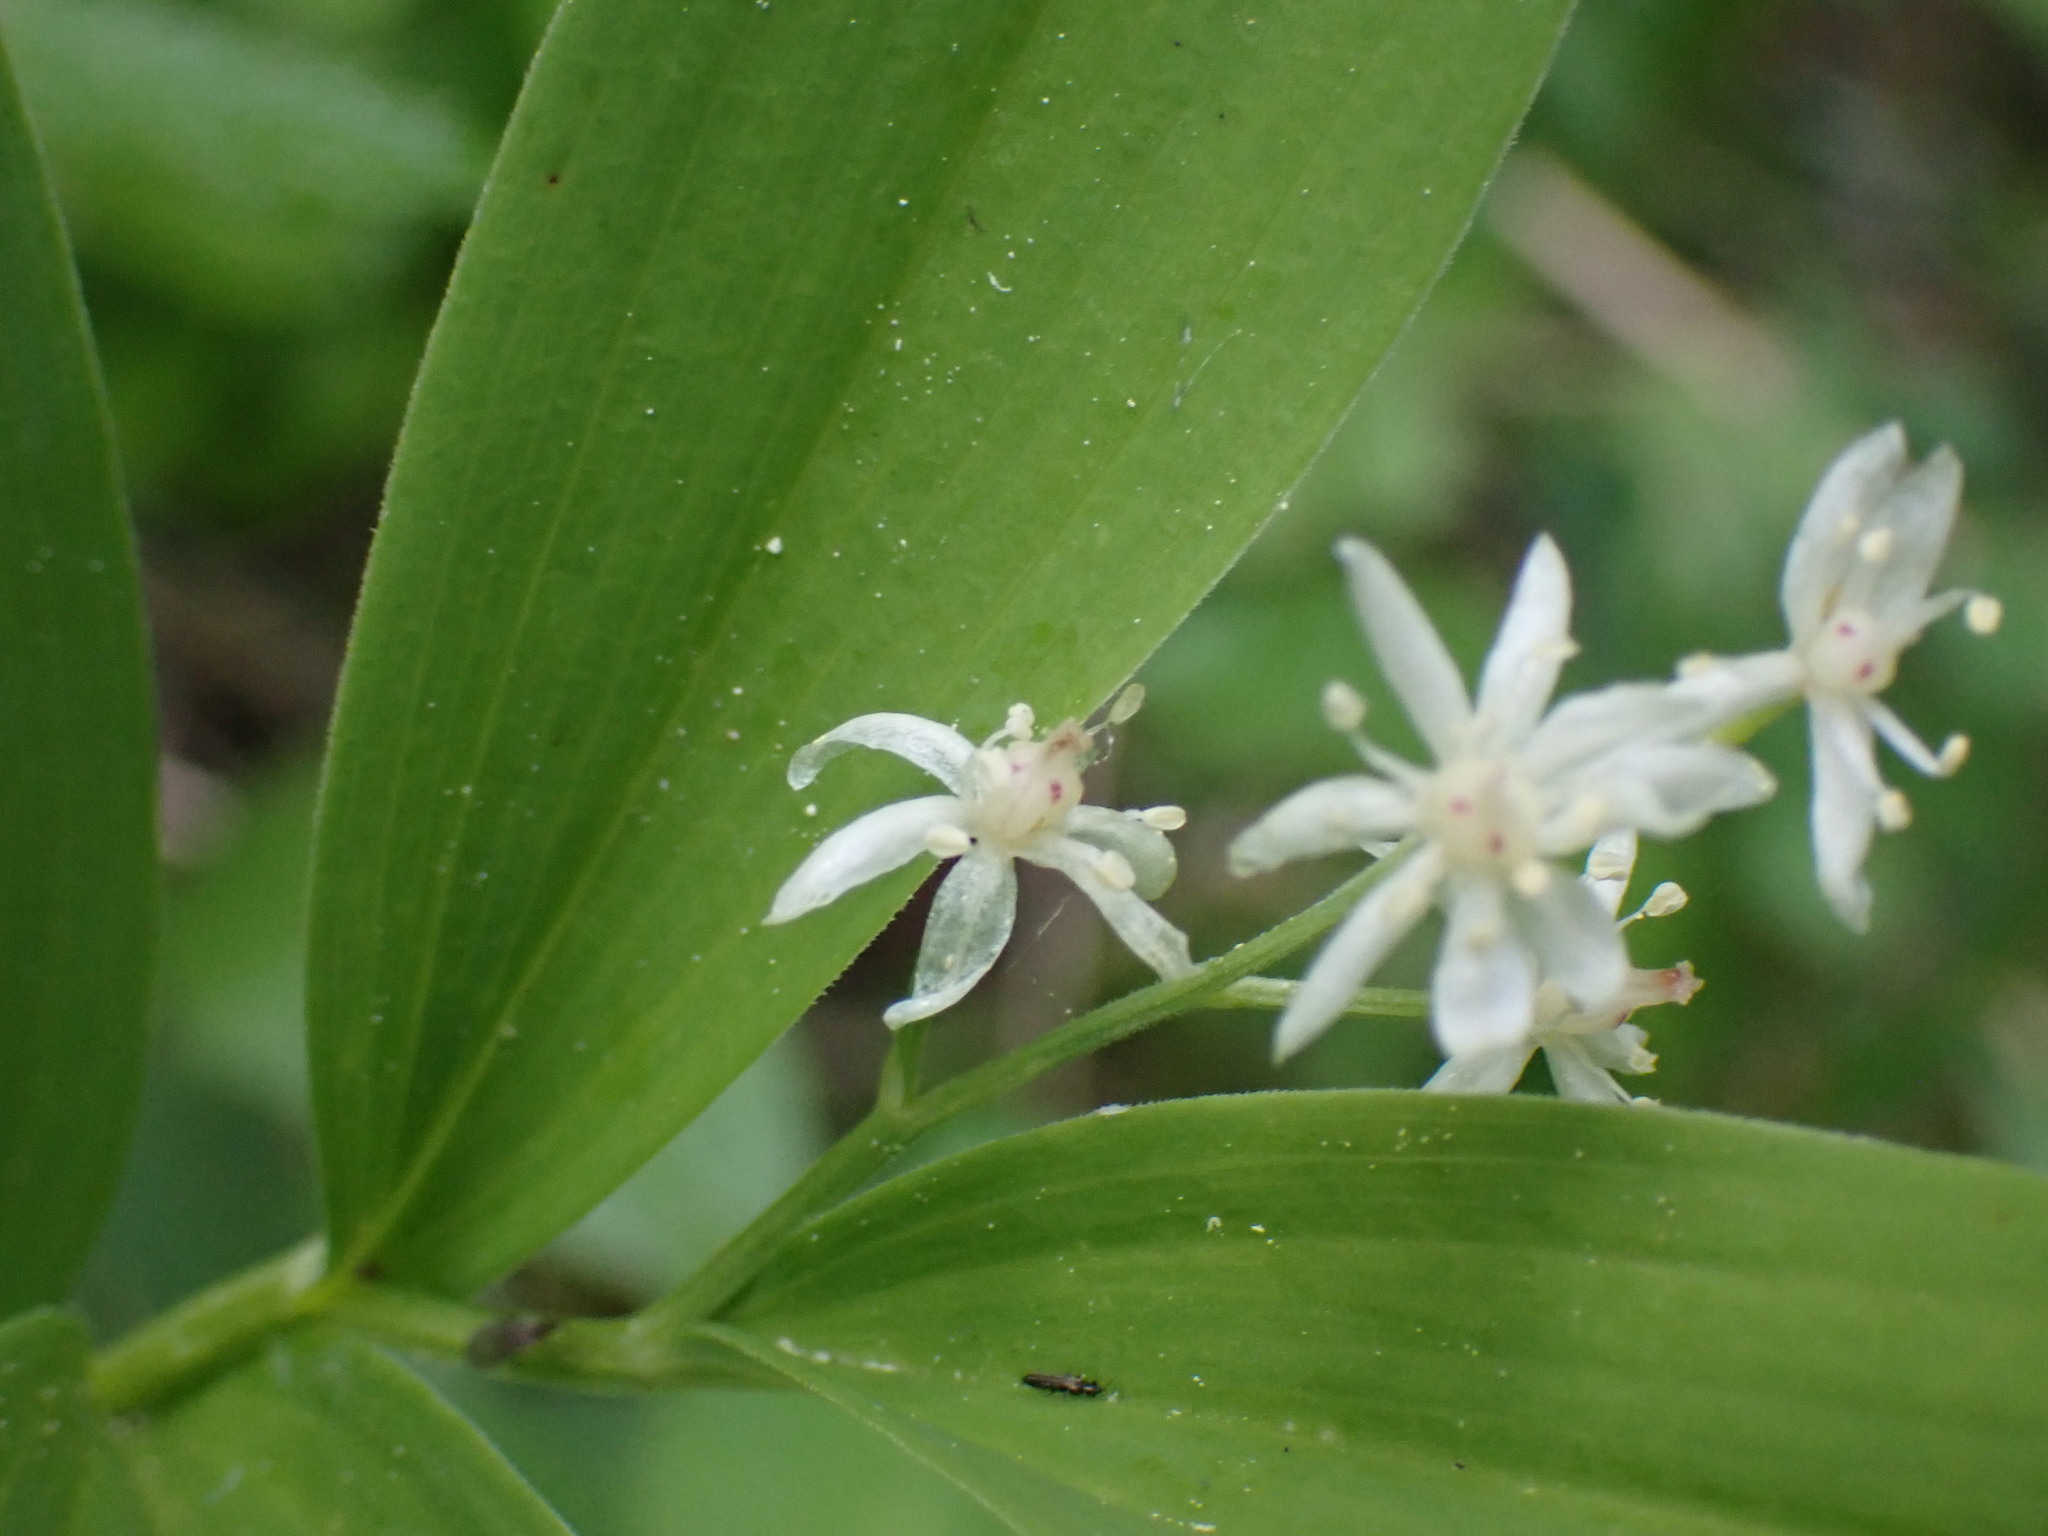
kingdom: Plantae
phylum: Tracheophyta
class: Liliopsida
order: Asparagales
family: Asparagaceae
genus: Maianthemum
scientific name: Maianthemum stellatum
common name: Little false solomon's seal
